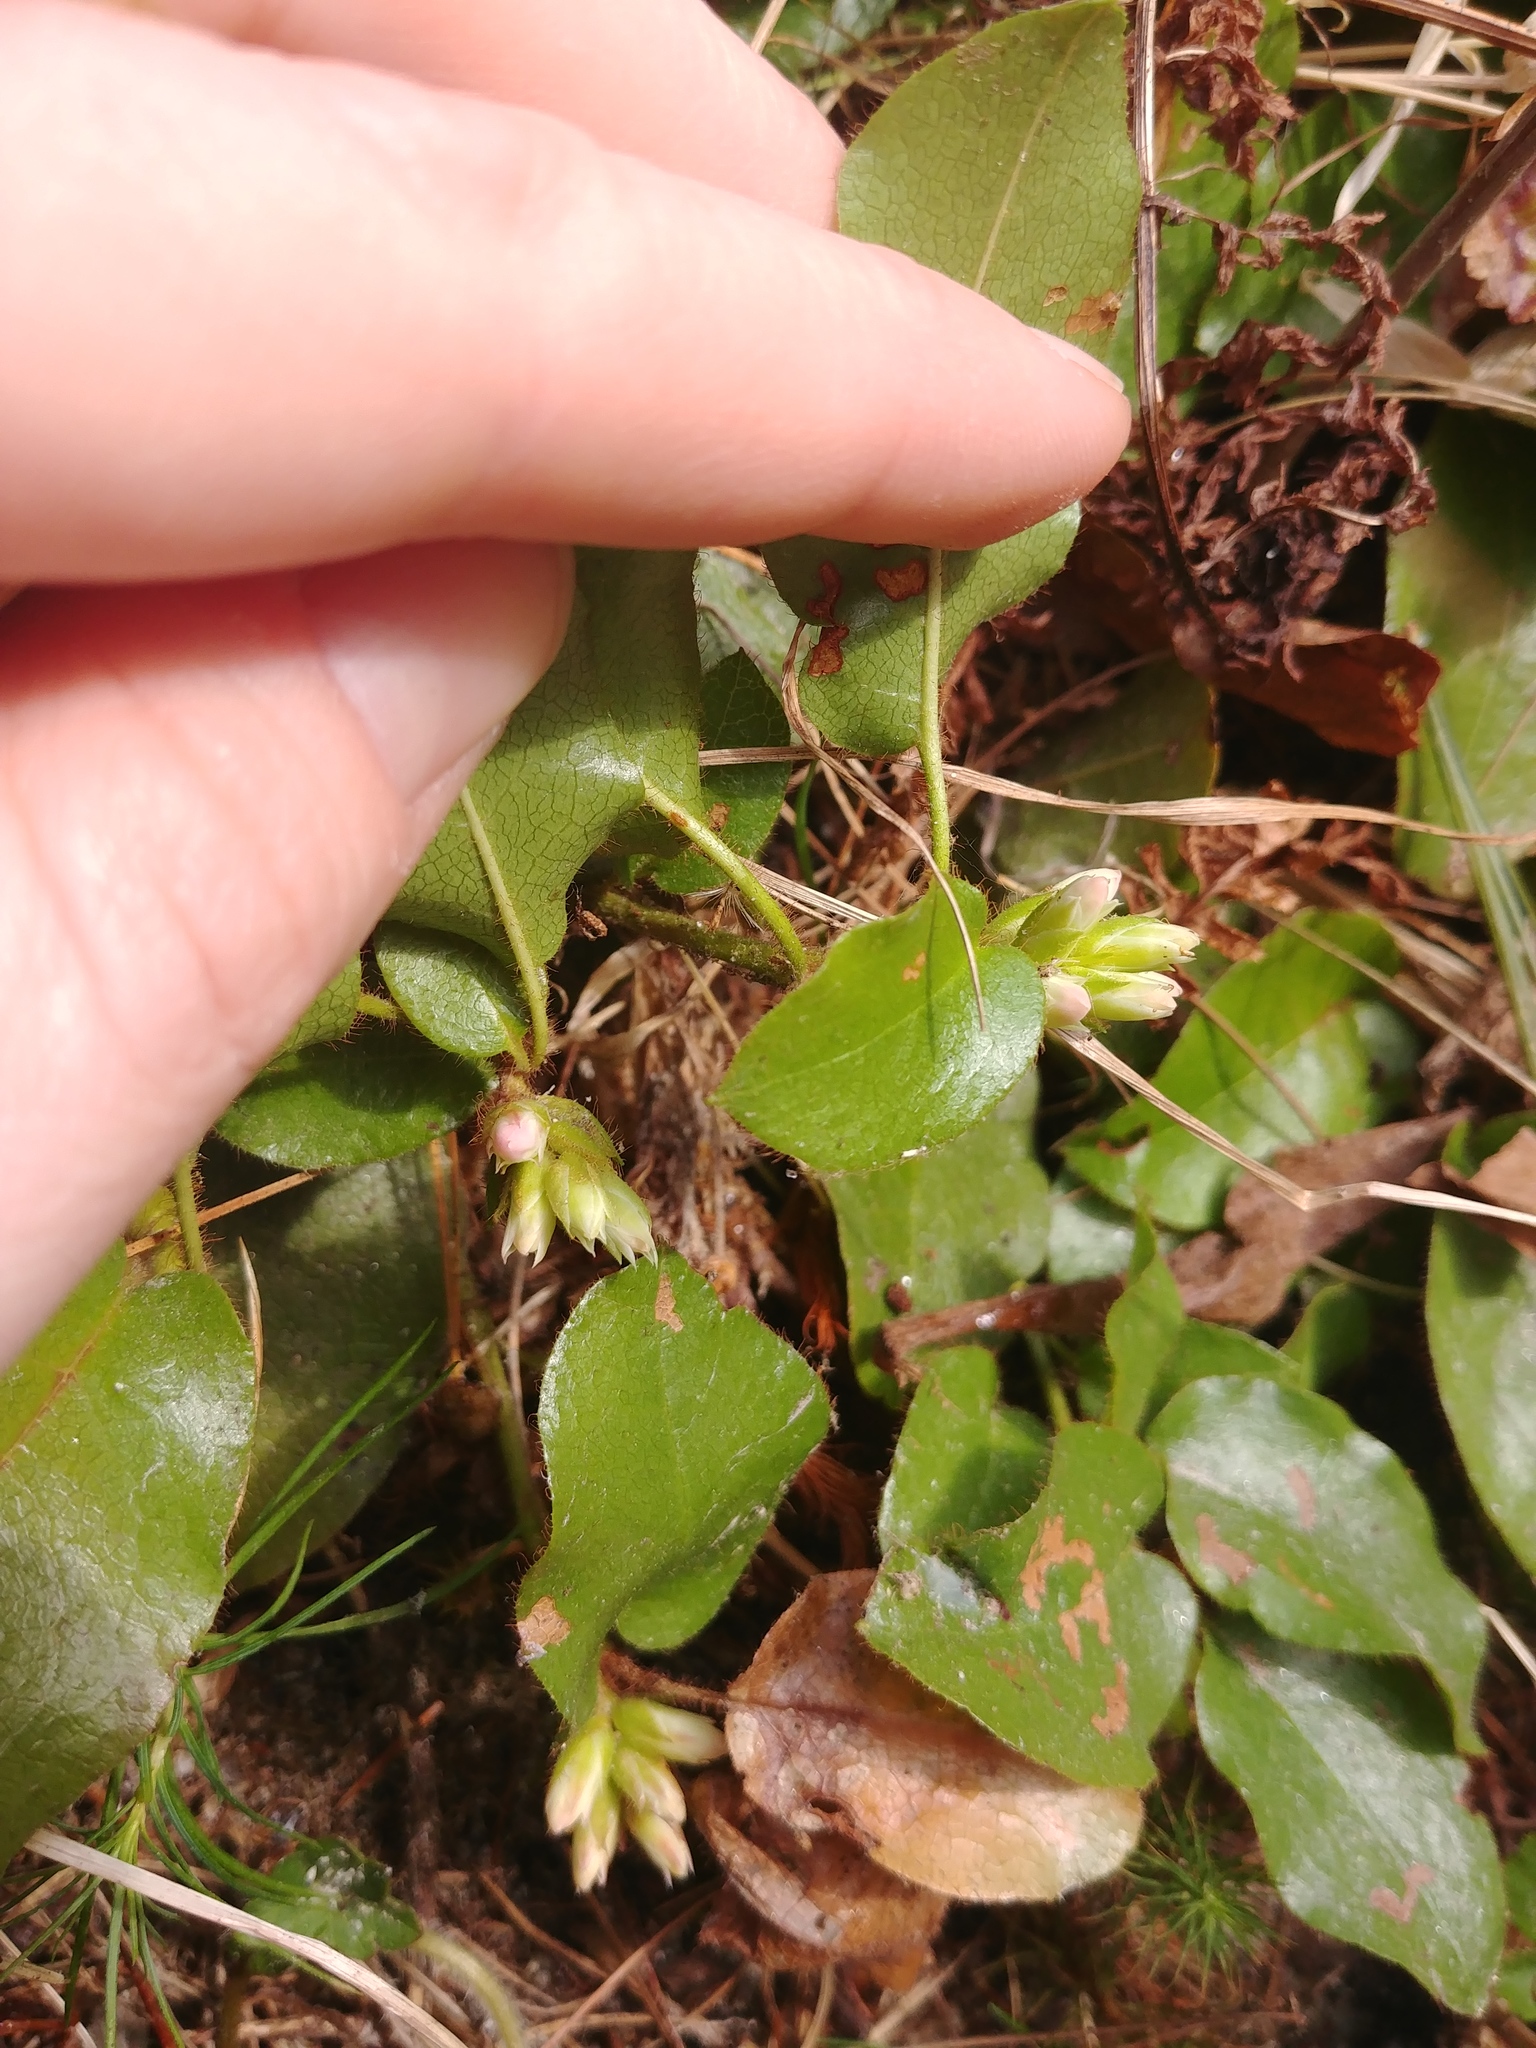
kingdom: Plantae
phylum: Tracheophyta
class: Magnoliopsida
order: Ericales
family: Ericaceae
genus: Epigaea
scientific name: Epigaea repens
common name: Gravelroot
